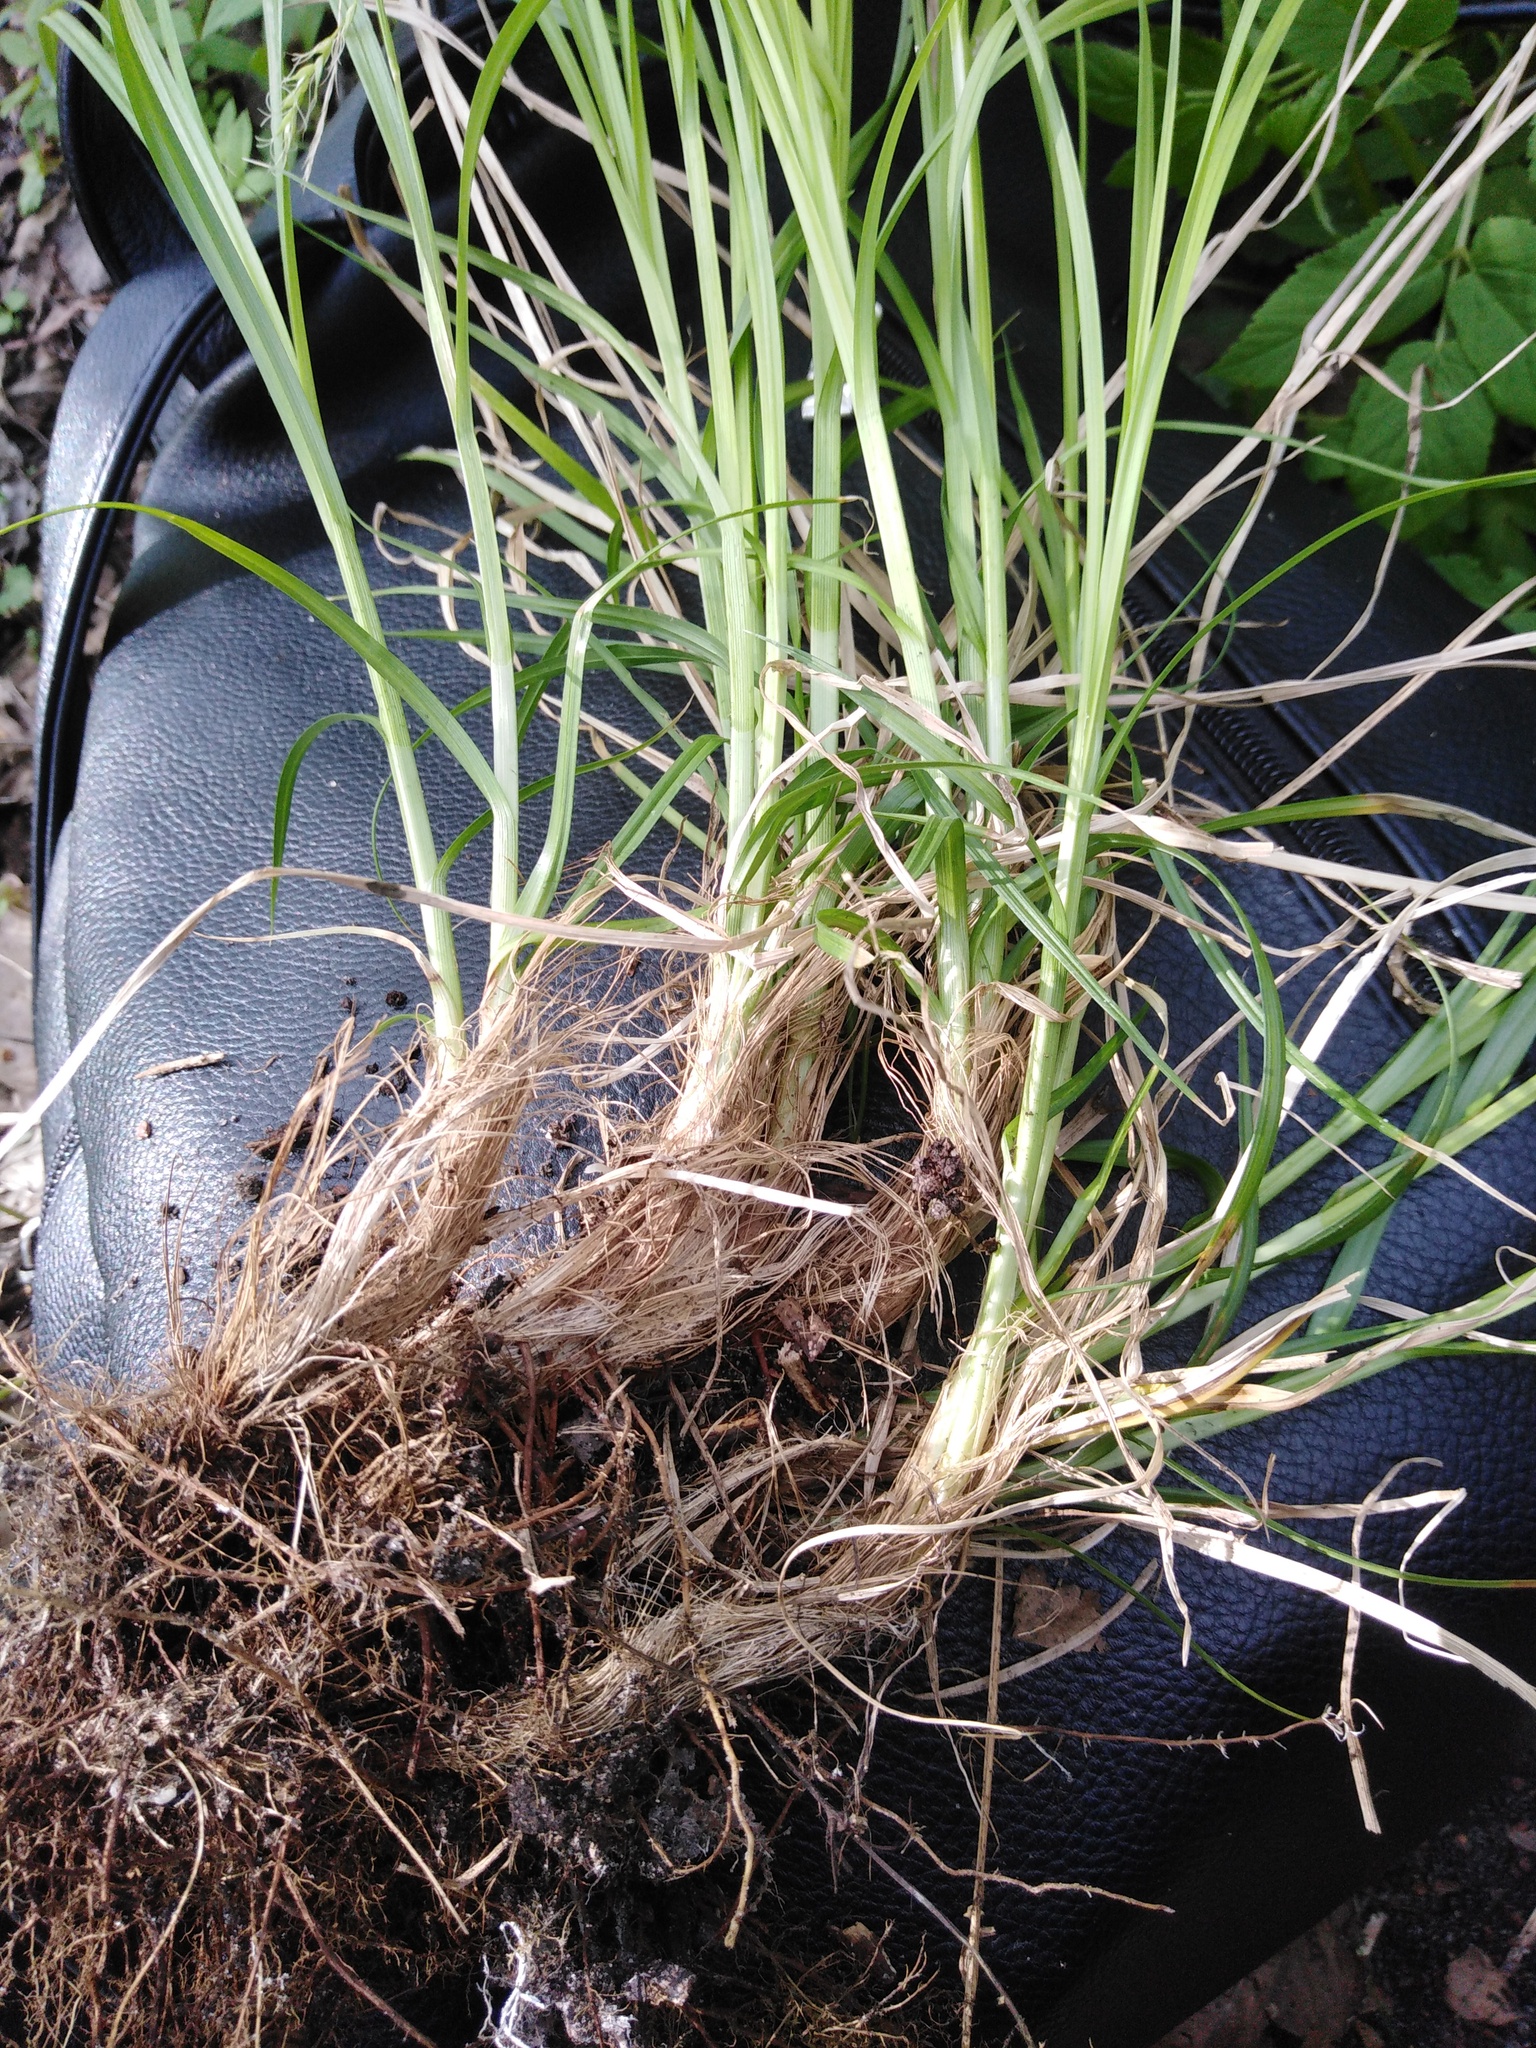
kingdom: Plantae
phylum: Tracheophyta
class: Liliopsida
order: Poales
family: Cyperaceae
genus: Carex
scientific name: Carex arnellii
